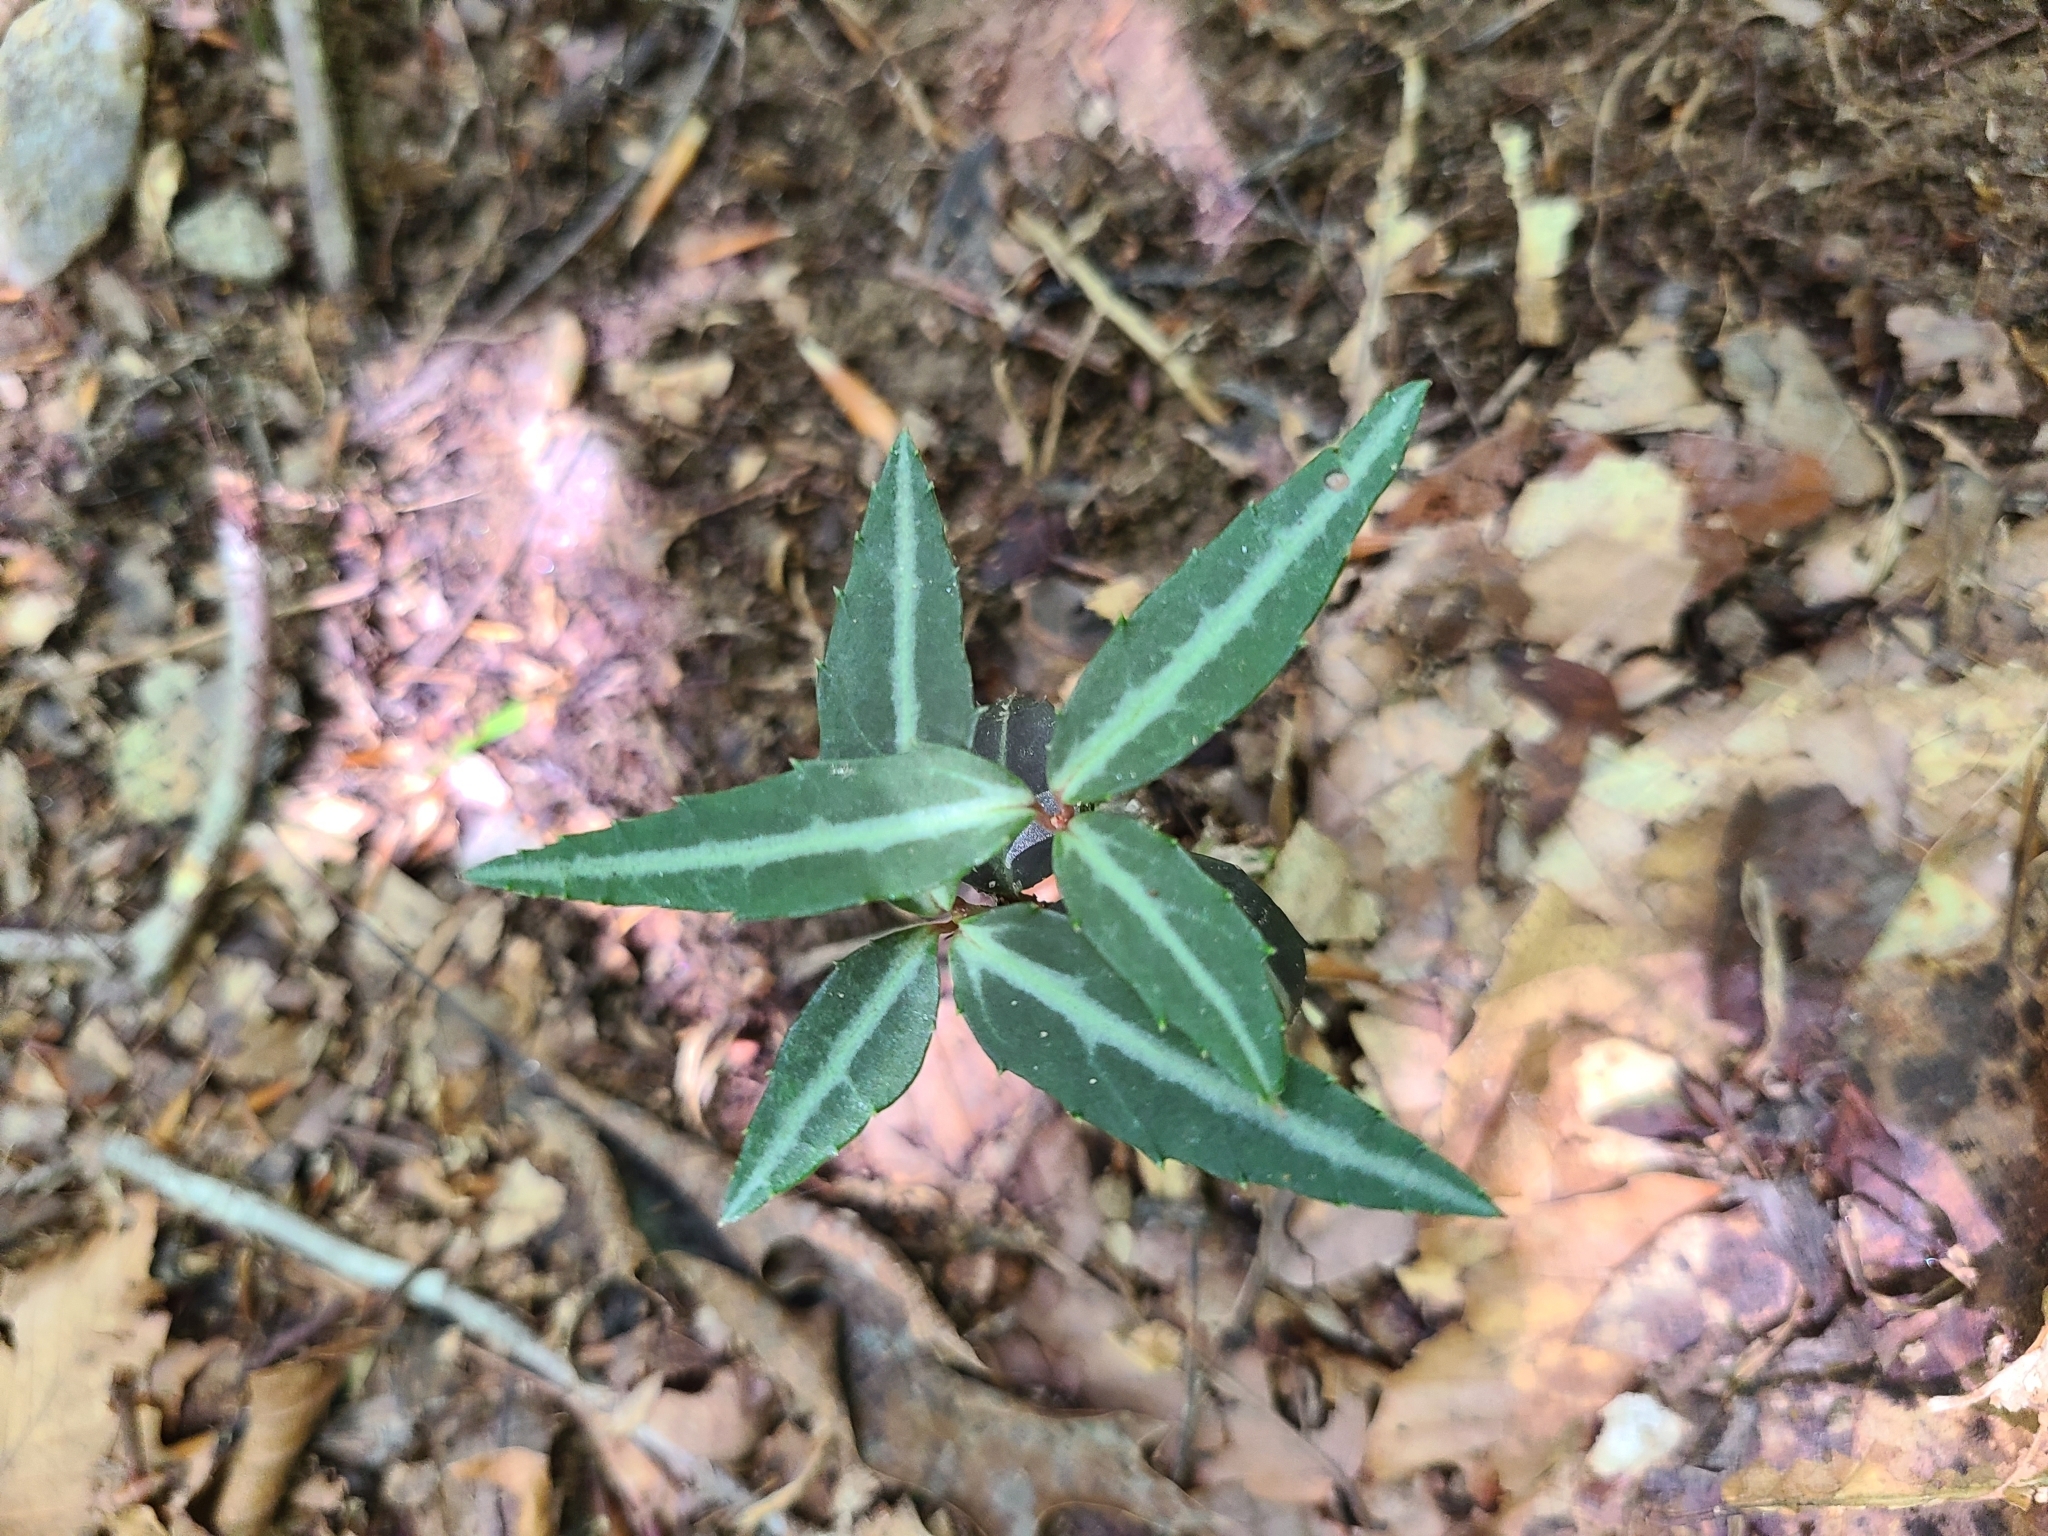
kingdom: Plantae
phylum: Tracheophyta
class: Magnoliopsida
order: Ericales
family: Ericaceae
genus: Chimaphila
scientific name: Chimaphila maculata
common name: Spotted pipsissewa
